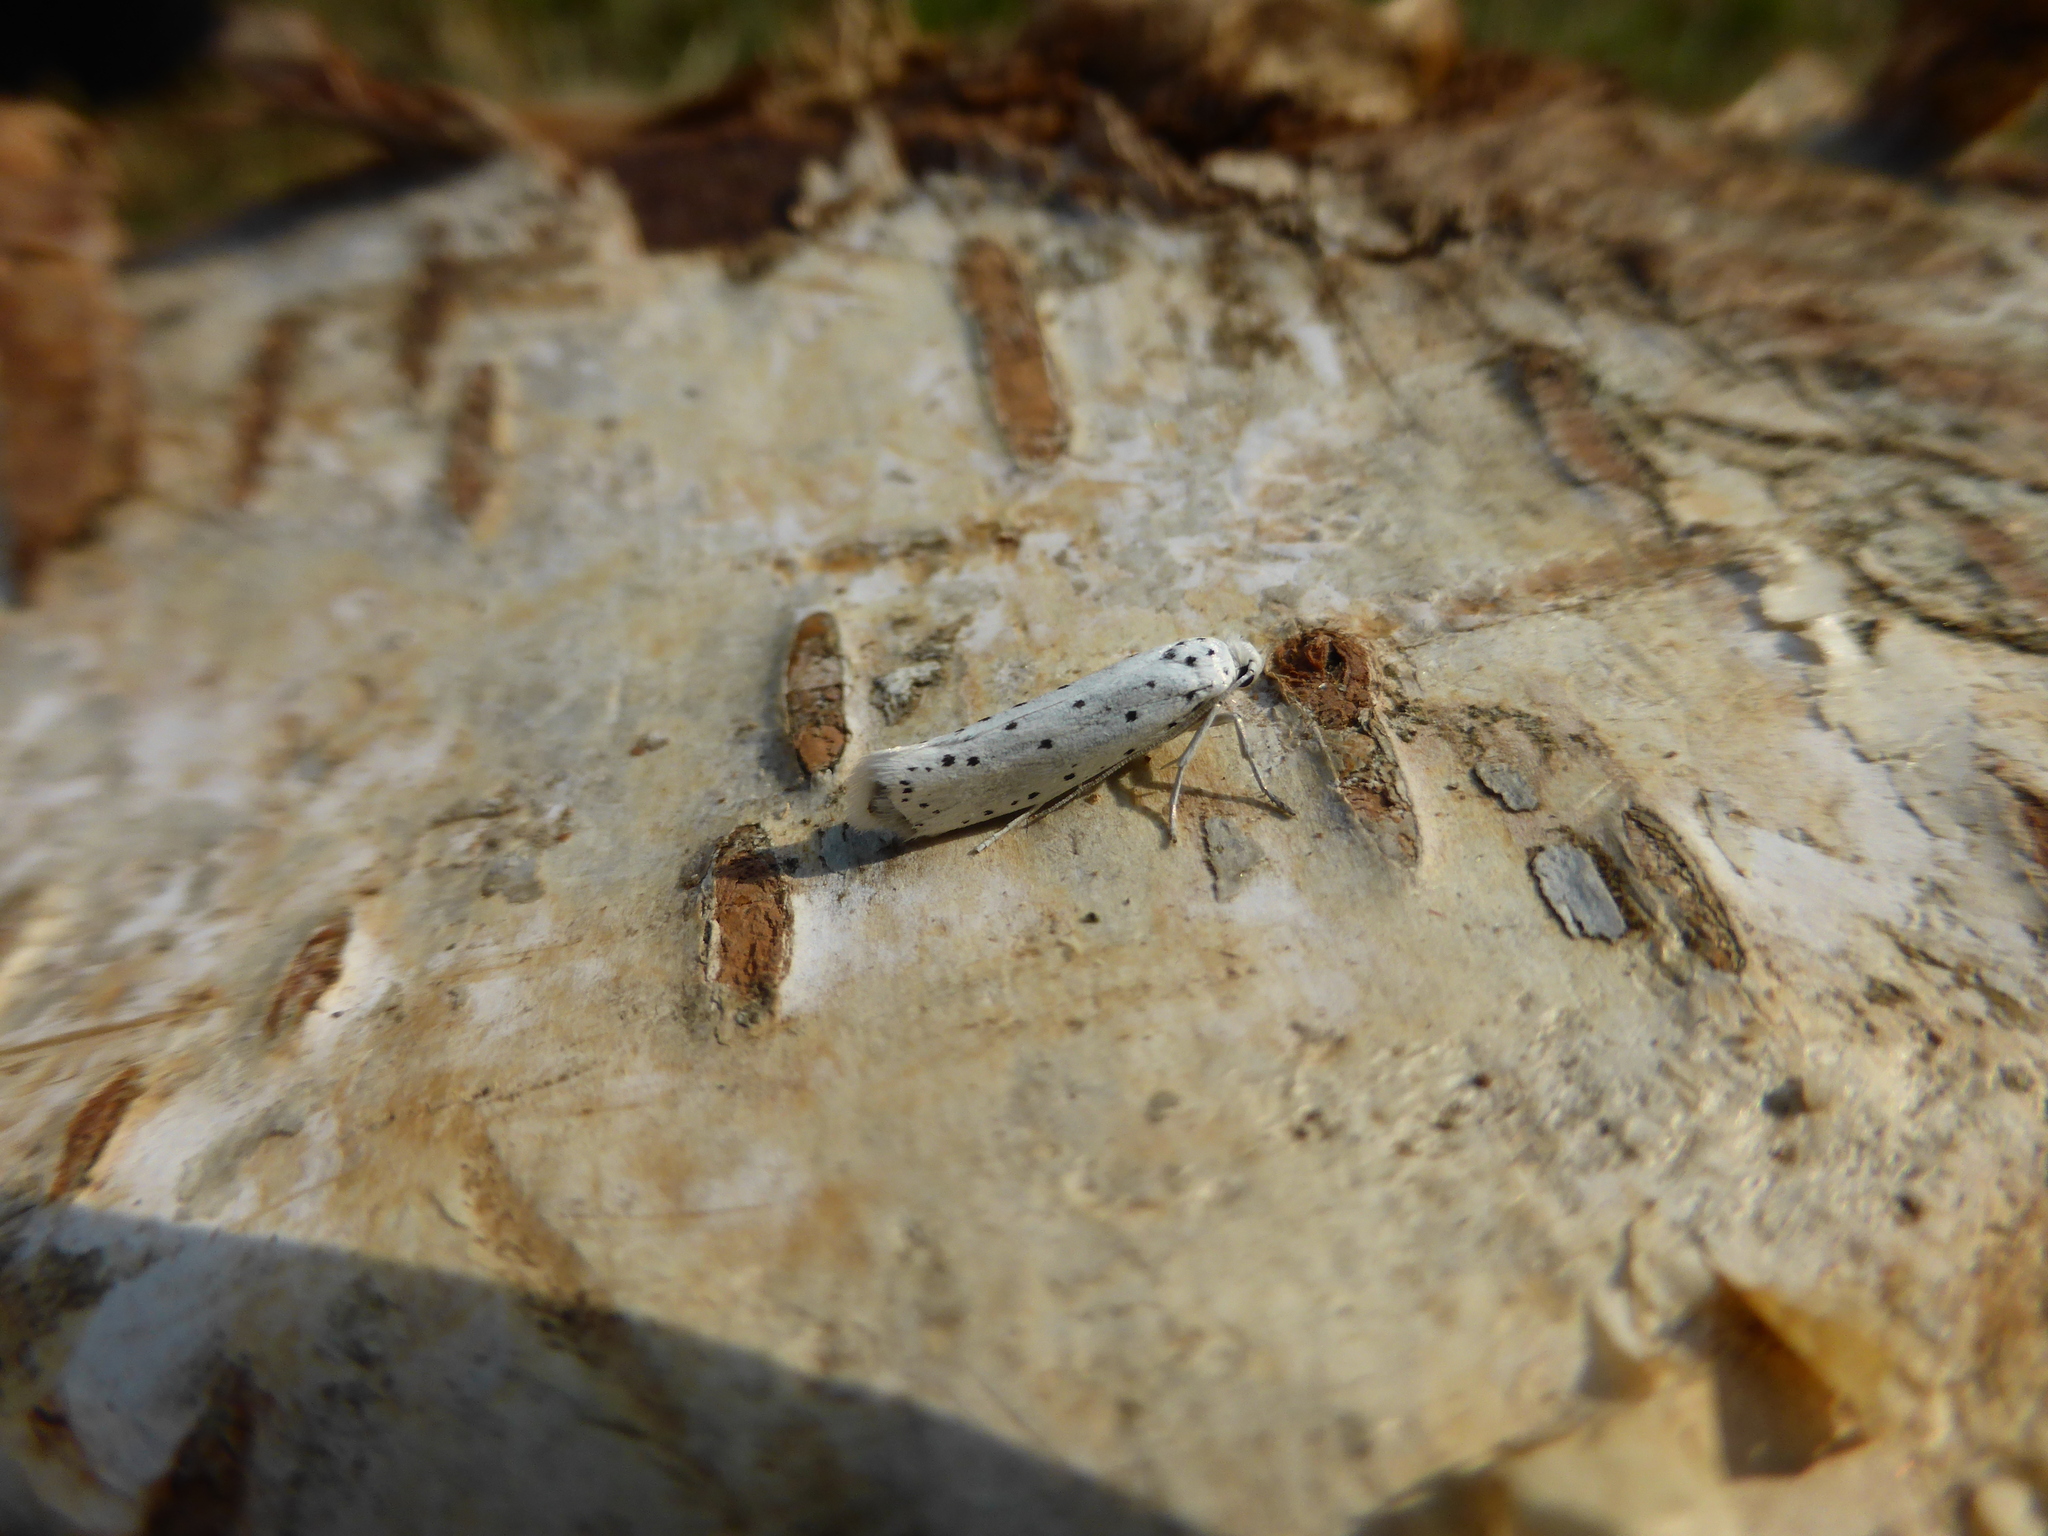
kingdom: Animalia
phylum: Arthropoda
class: Insecta
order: Lepidoptera
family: Yponomeutidae
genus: Yponomeuta
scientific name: Yponomeuta
